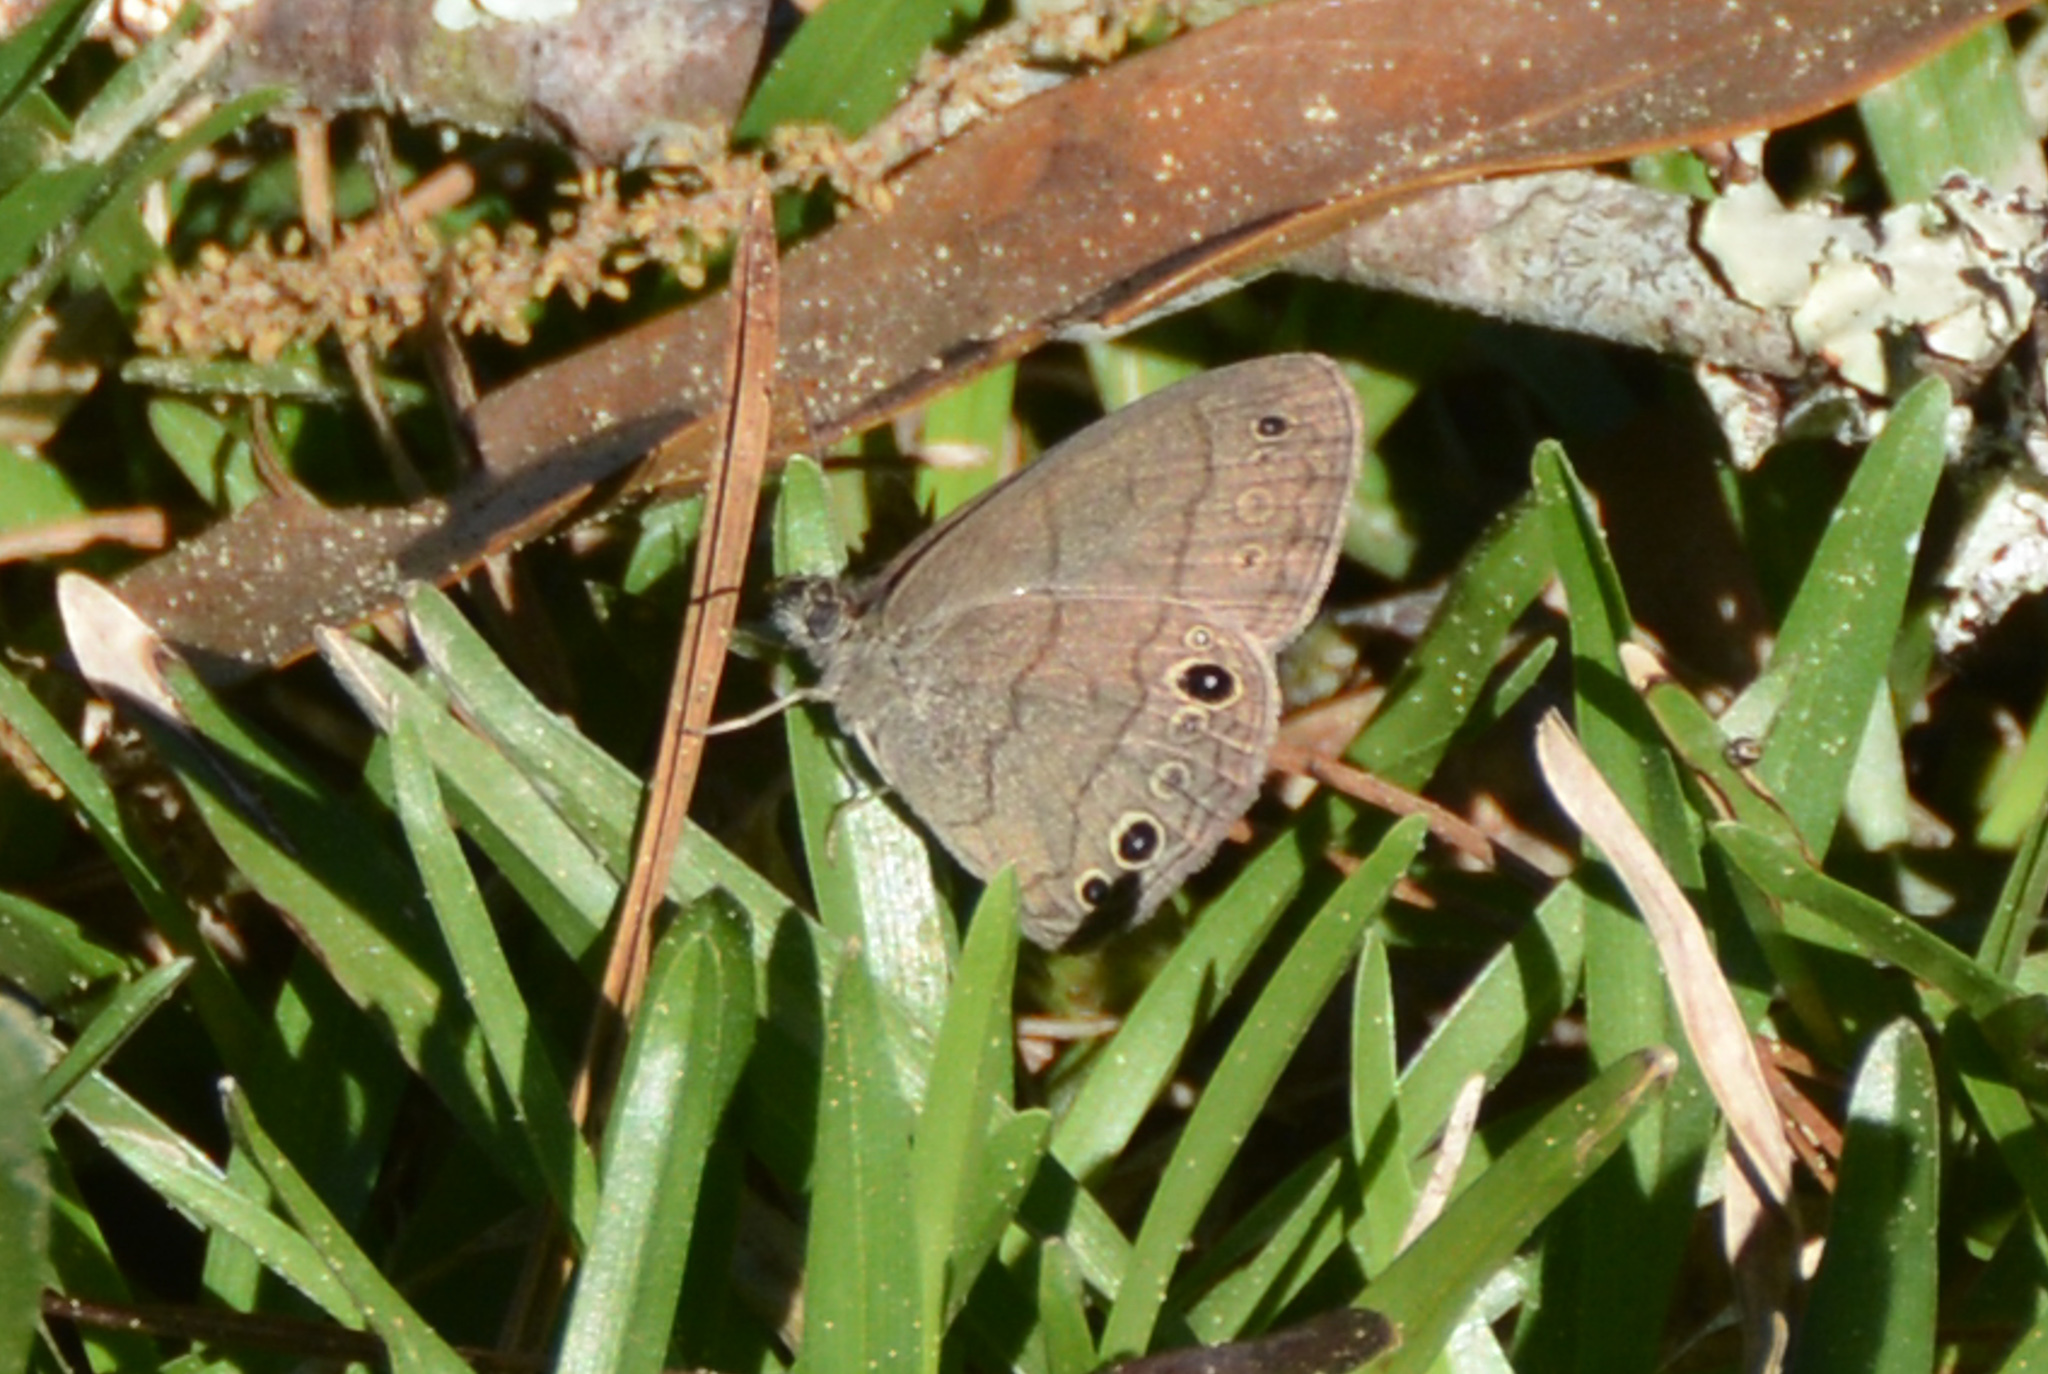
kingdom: Animalia
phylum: Arthropoda
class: Insecta
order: Lepidoptera
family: Nymphalidae
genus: Hermeuptychia
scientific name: Hermeuptychia hermes
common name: Hermes satyr
